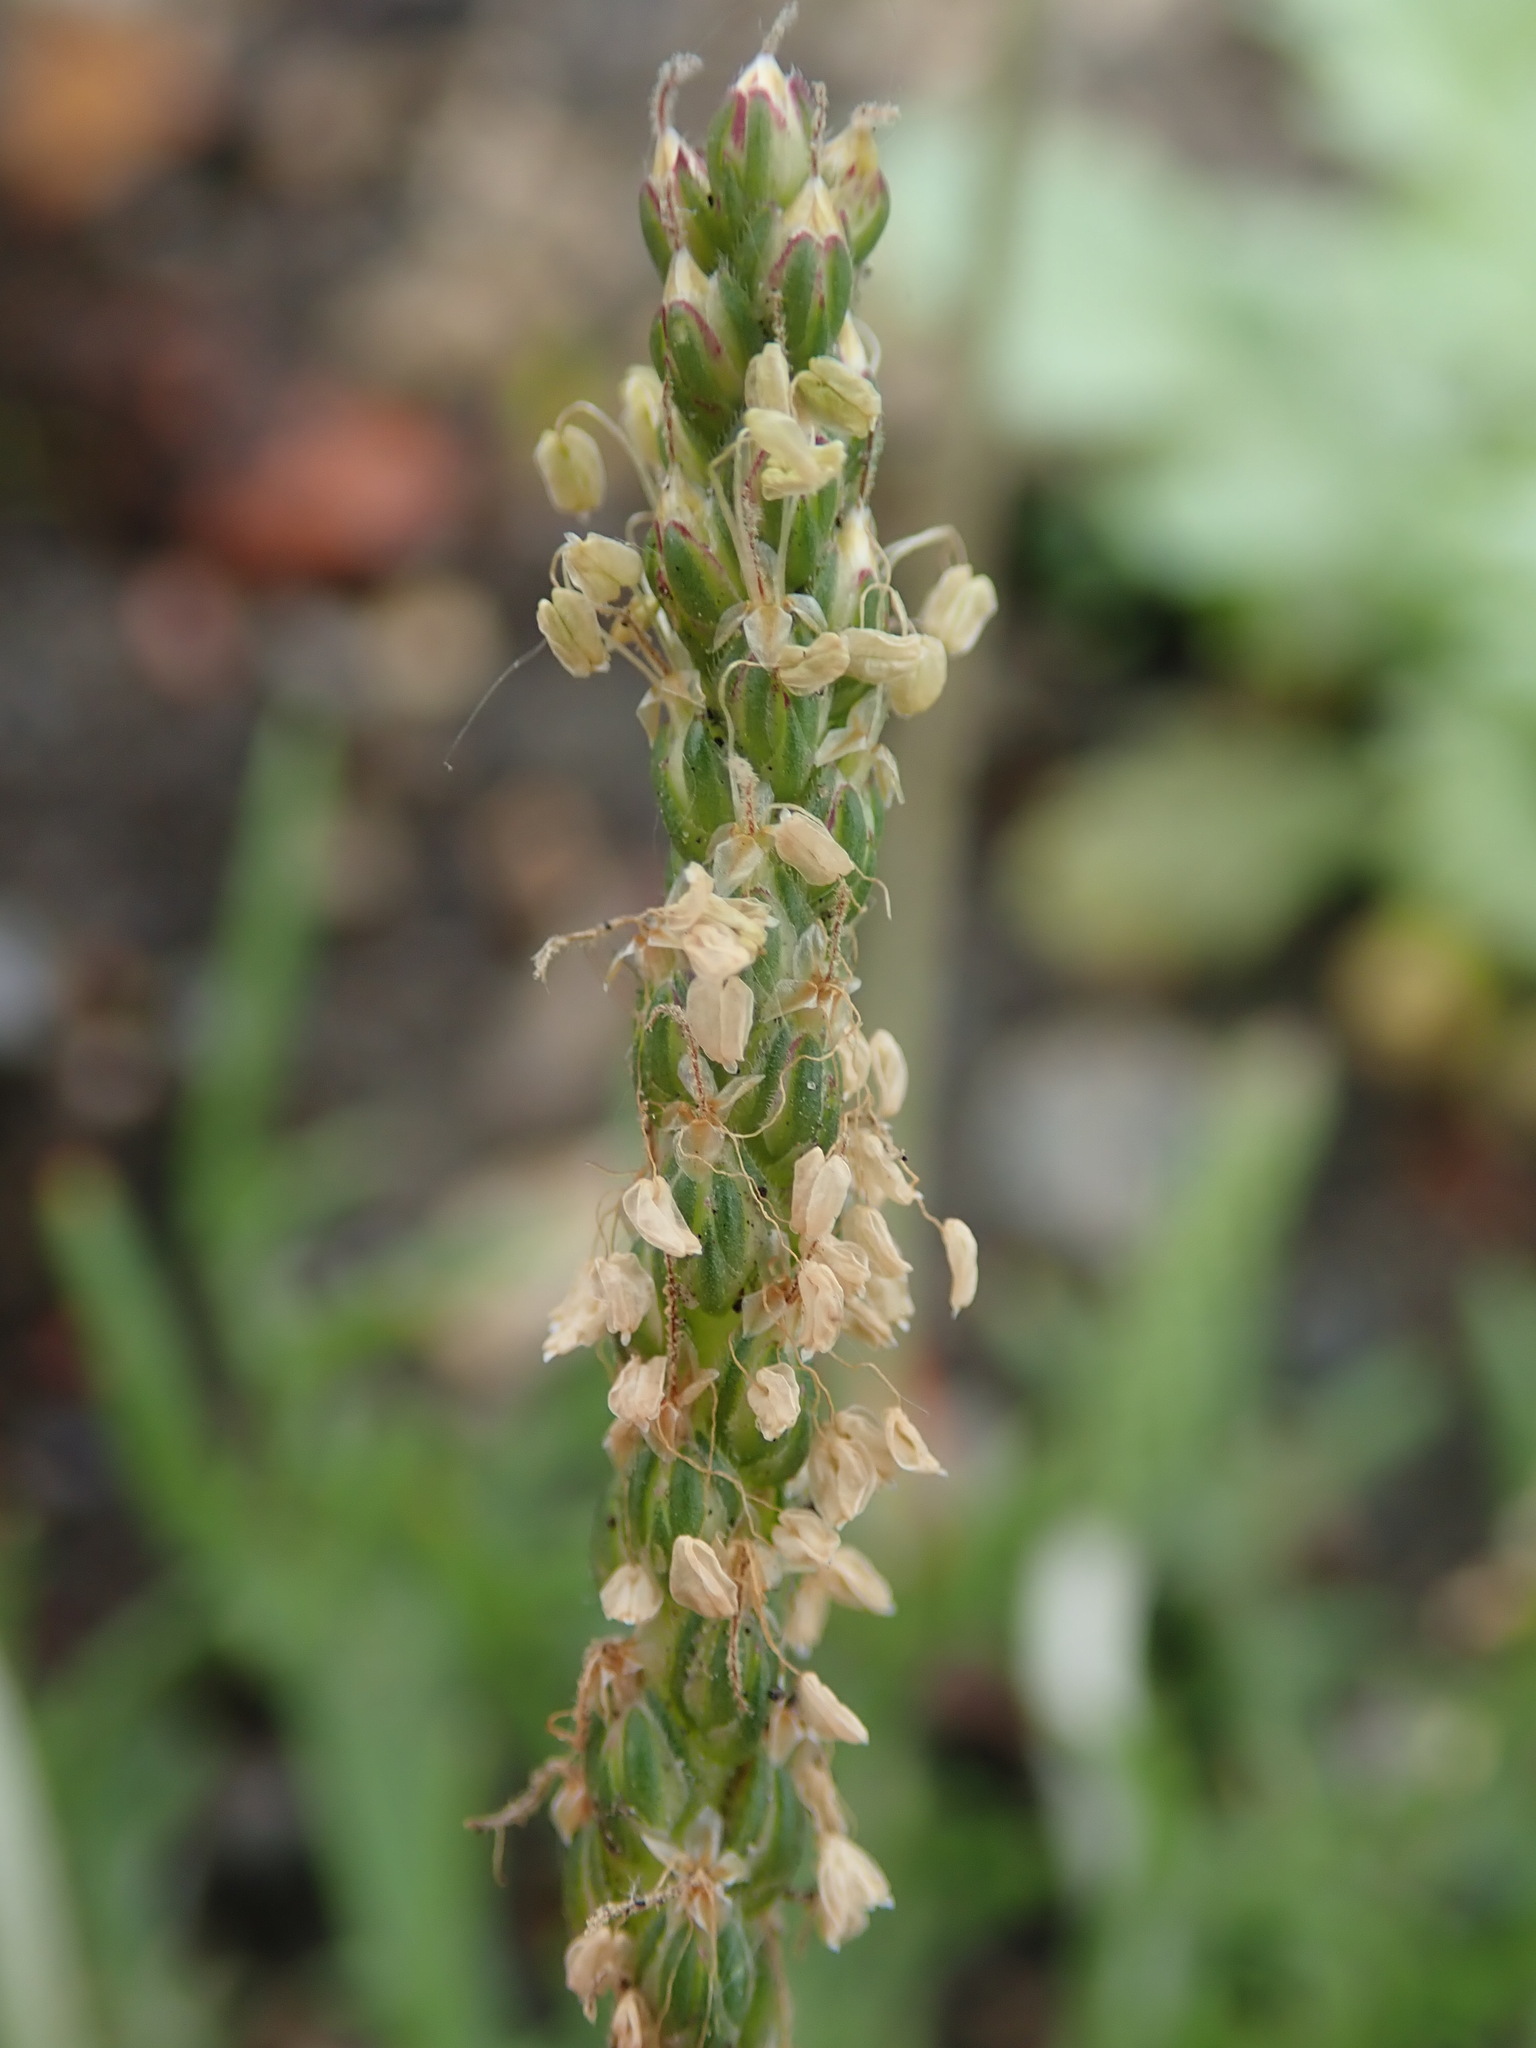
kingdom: Plantae
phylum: Tracheophyta
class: Magnoliopsida
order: Lamiales
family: Plantaginaceae
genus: Plantago
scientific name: Plantago coronopus
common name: Buck's-horn plantain
